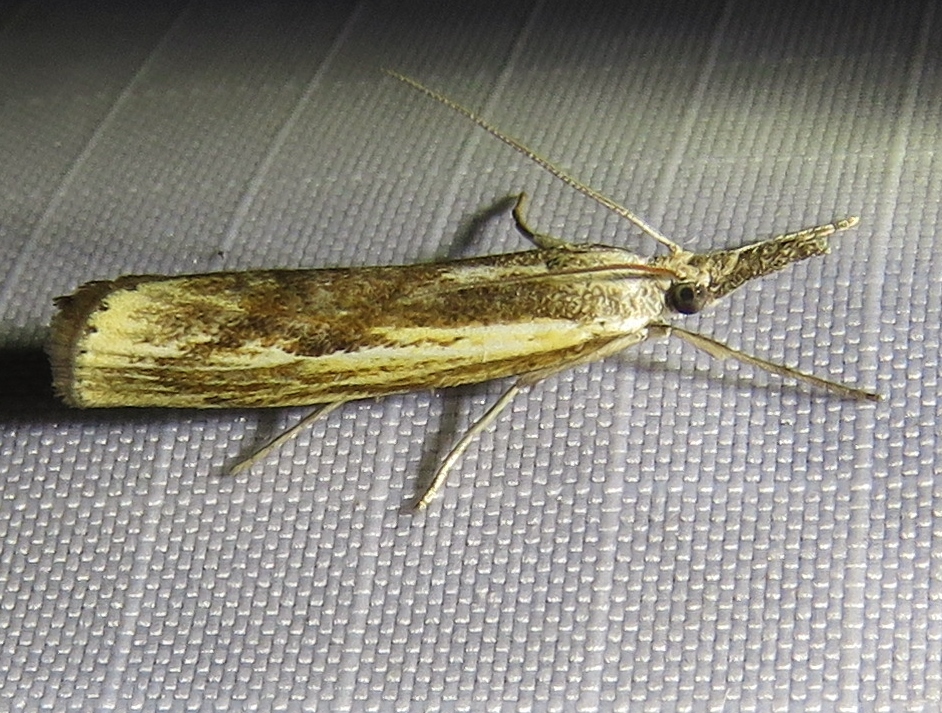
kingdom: Animalia
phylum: Arthropoda
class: Insecta
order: Lepidoptera
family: Crambidae
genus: Agriphila
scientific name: Agriphila inquinatella
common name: Barred grass-veneer
